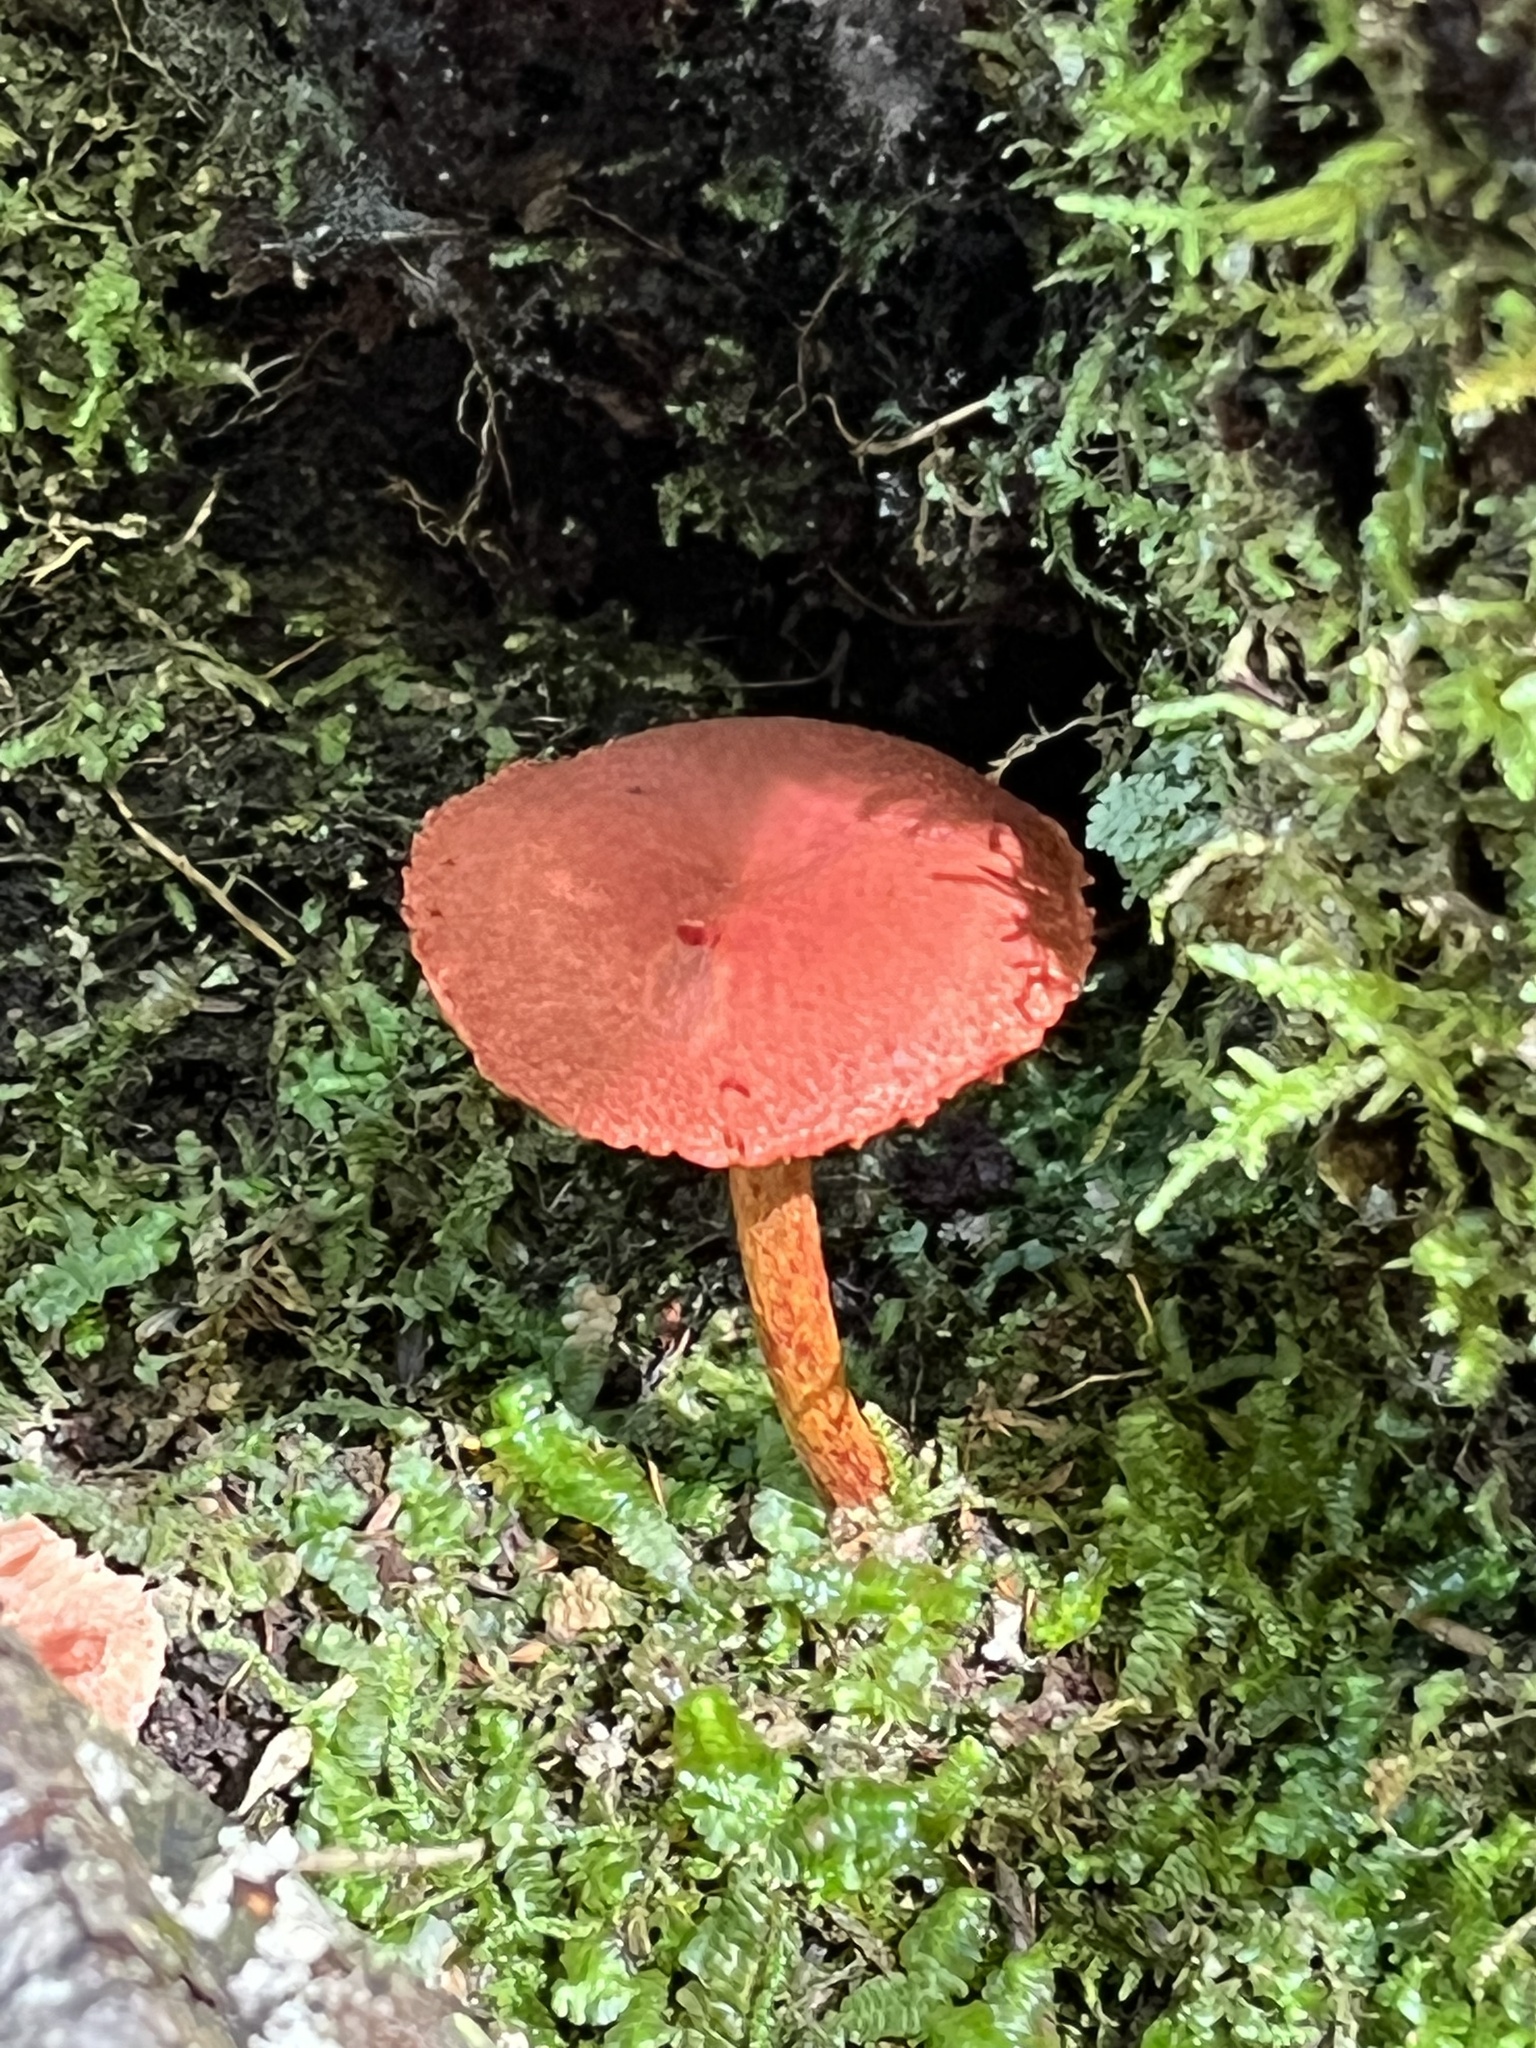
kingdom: Fungi
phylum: Basidiomycota
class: Agaricomycetes
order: Agaricales
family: Cortinariaceae
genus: Cortinarius
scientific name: Cortinarius harrisonii
